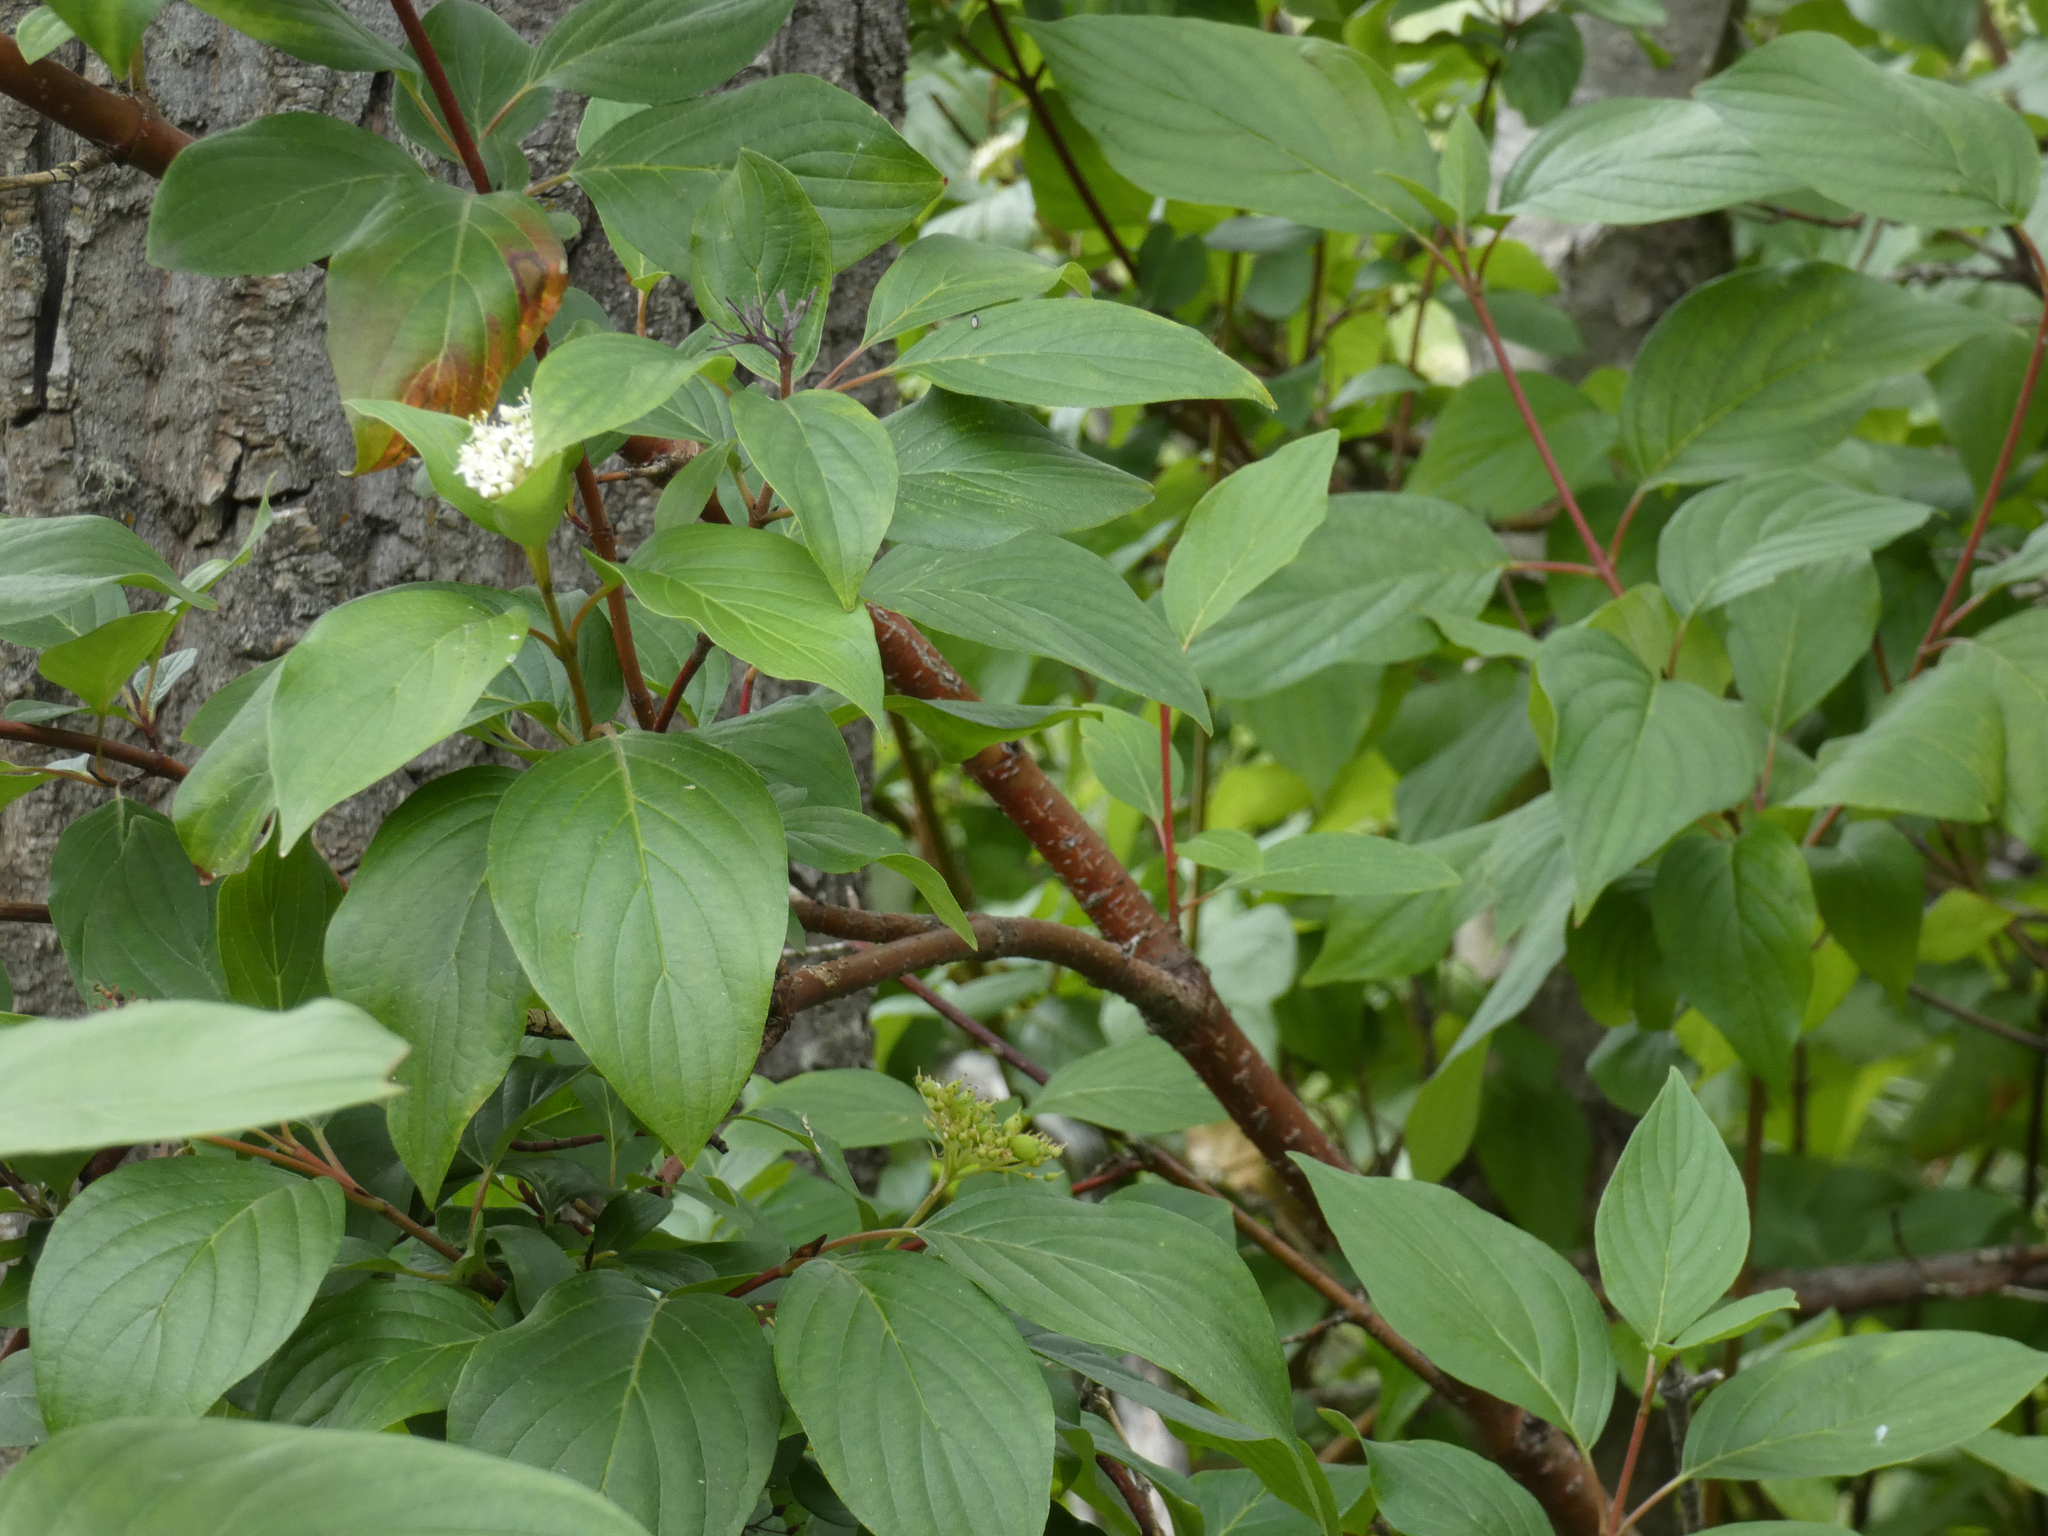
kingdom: Plantae
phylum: Tracheophyta
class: Magnoliopsida
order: Cornales
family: Cornaceae
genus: Cornus
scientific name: Cornus sericea
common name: Red-osier dogwood
